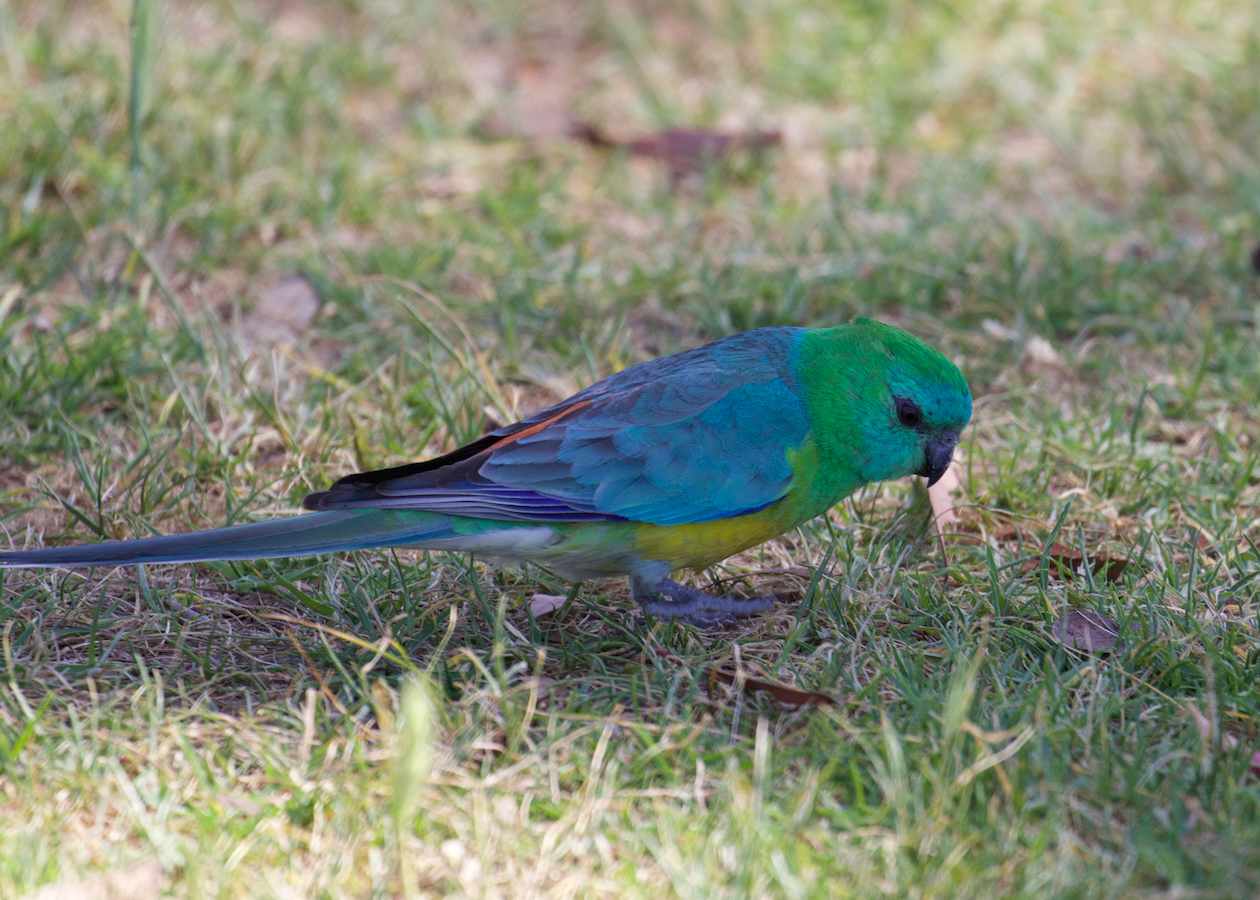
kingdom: Animalia
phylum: Chordata
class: Aves
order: Psittaciformes
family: Psittacidae
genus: Psephotus
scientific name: Psephotus haematonotus
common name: Red-rumped parrot
